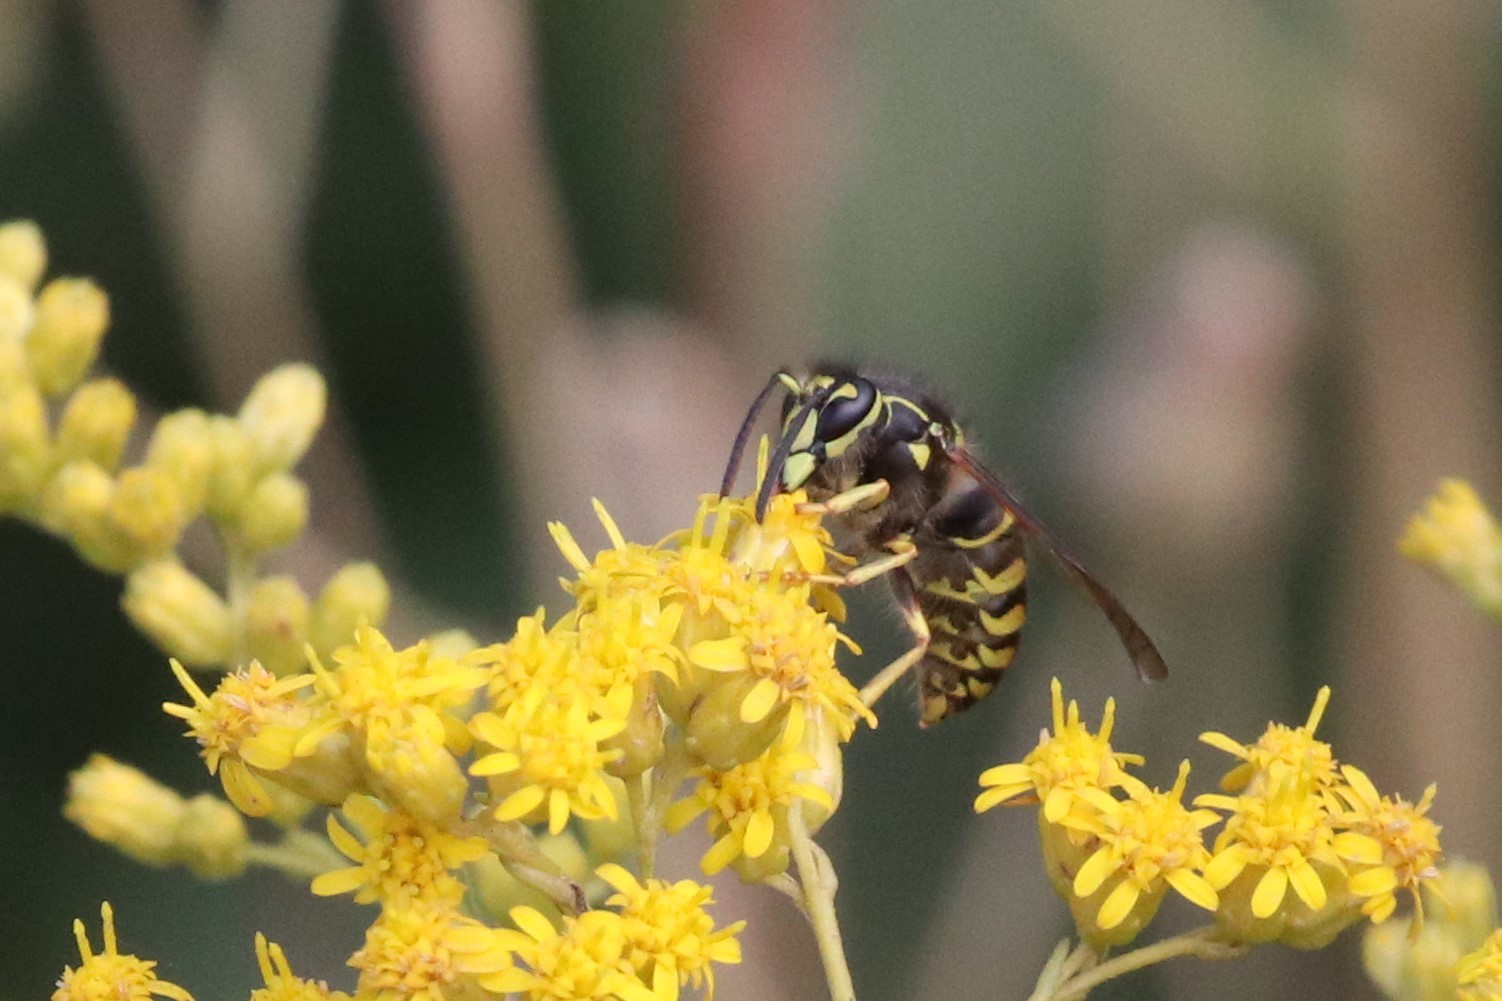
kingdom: Animalia
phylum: Arthropoda
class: Insecta
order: Hymenoptera
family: Vespidae
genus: Dolichovespula
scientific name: Dolichovespula arenaria
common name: Aerial yellowjacket
